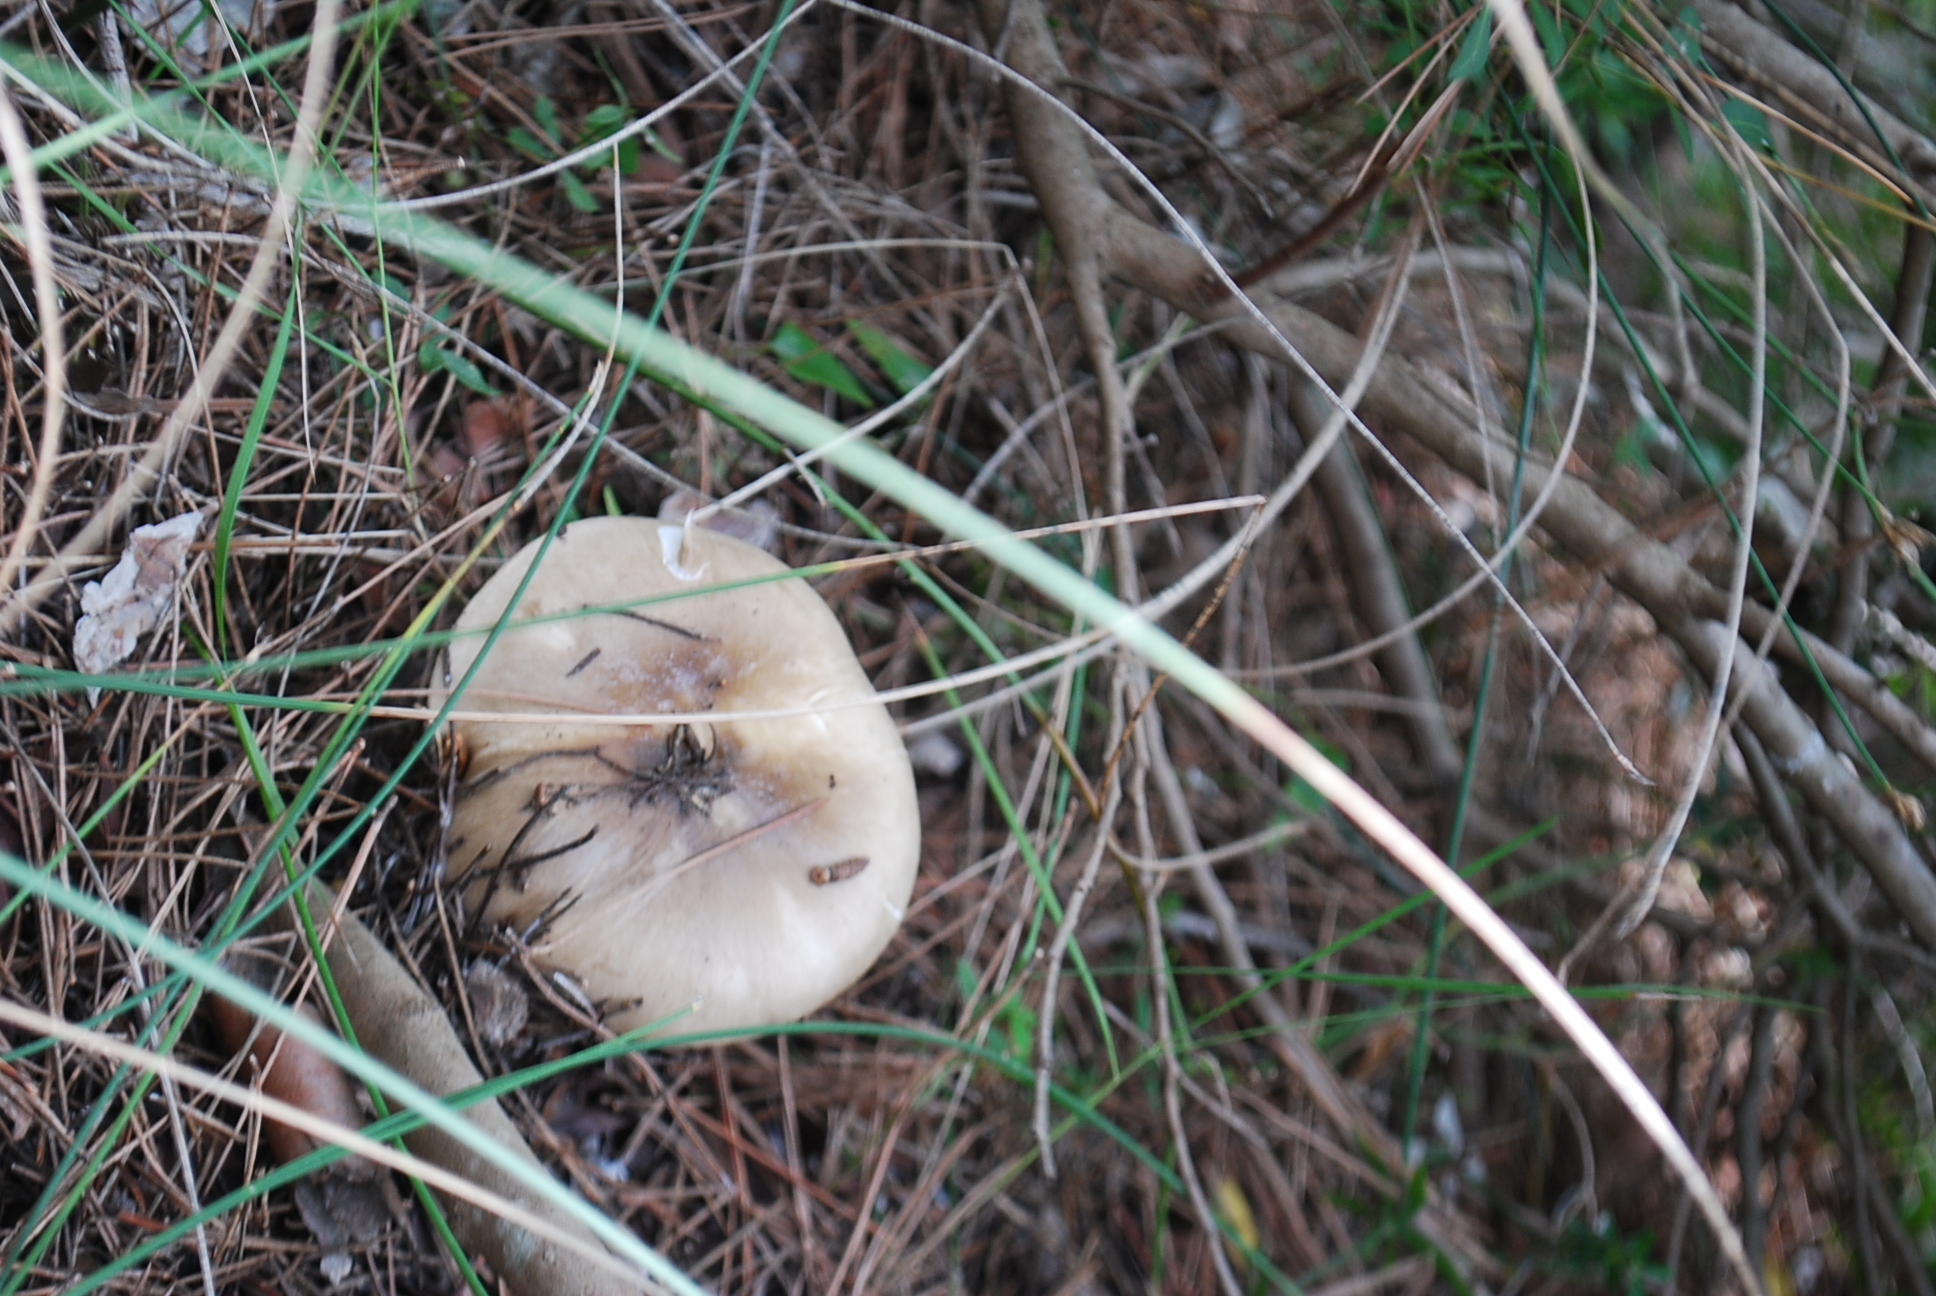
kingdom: Fungi
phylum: Basidiomycota
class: Agaricomycetes
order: Agaricales
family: Hygrophoraceae
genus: Hygrophorus
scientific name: Hygrophorus limacinus
